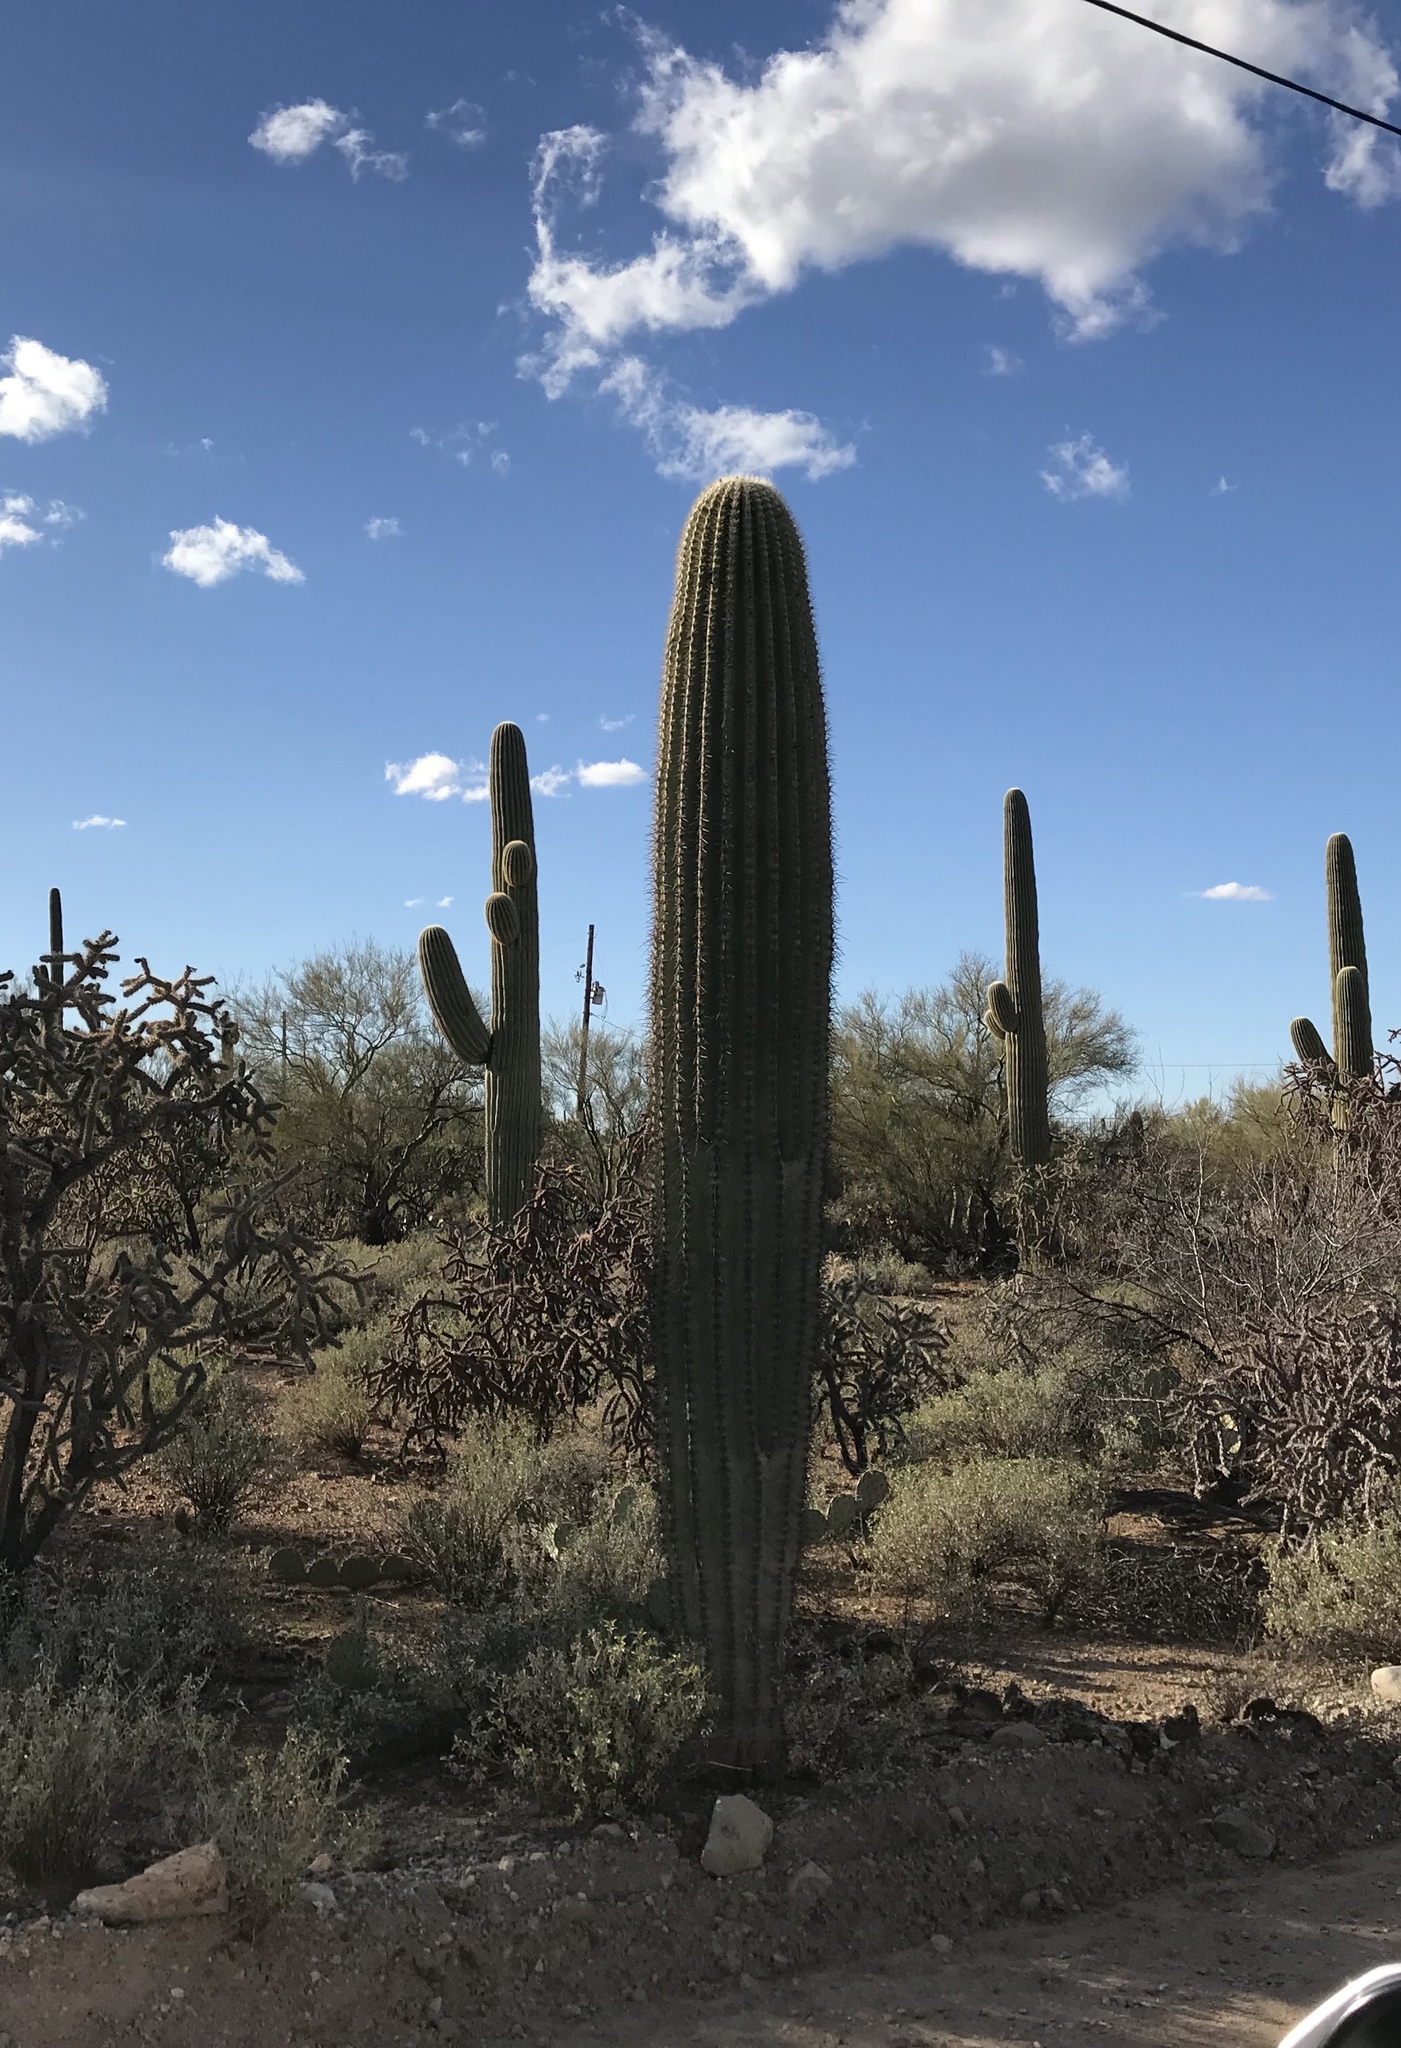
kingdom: Plantae
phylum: Tracheophyta
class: Magnoliopsida
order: Caryophyllales
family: Cactaceae
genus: Carnegiea
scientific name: Carnegiea gigantea
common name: Saguaro
